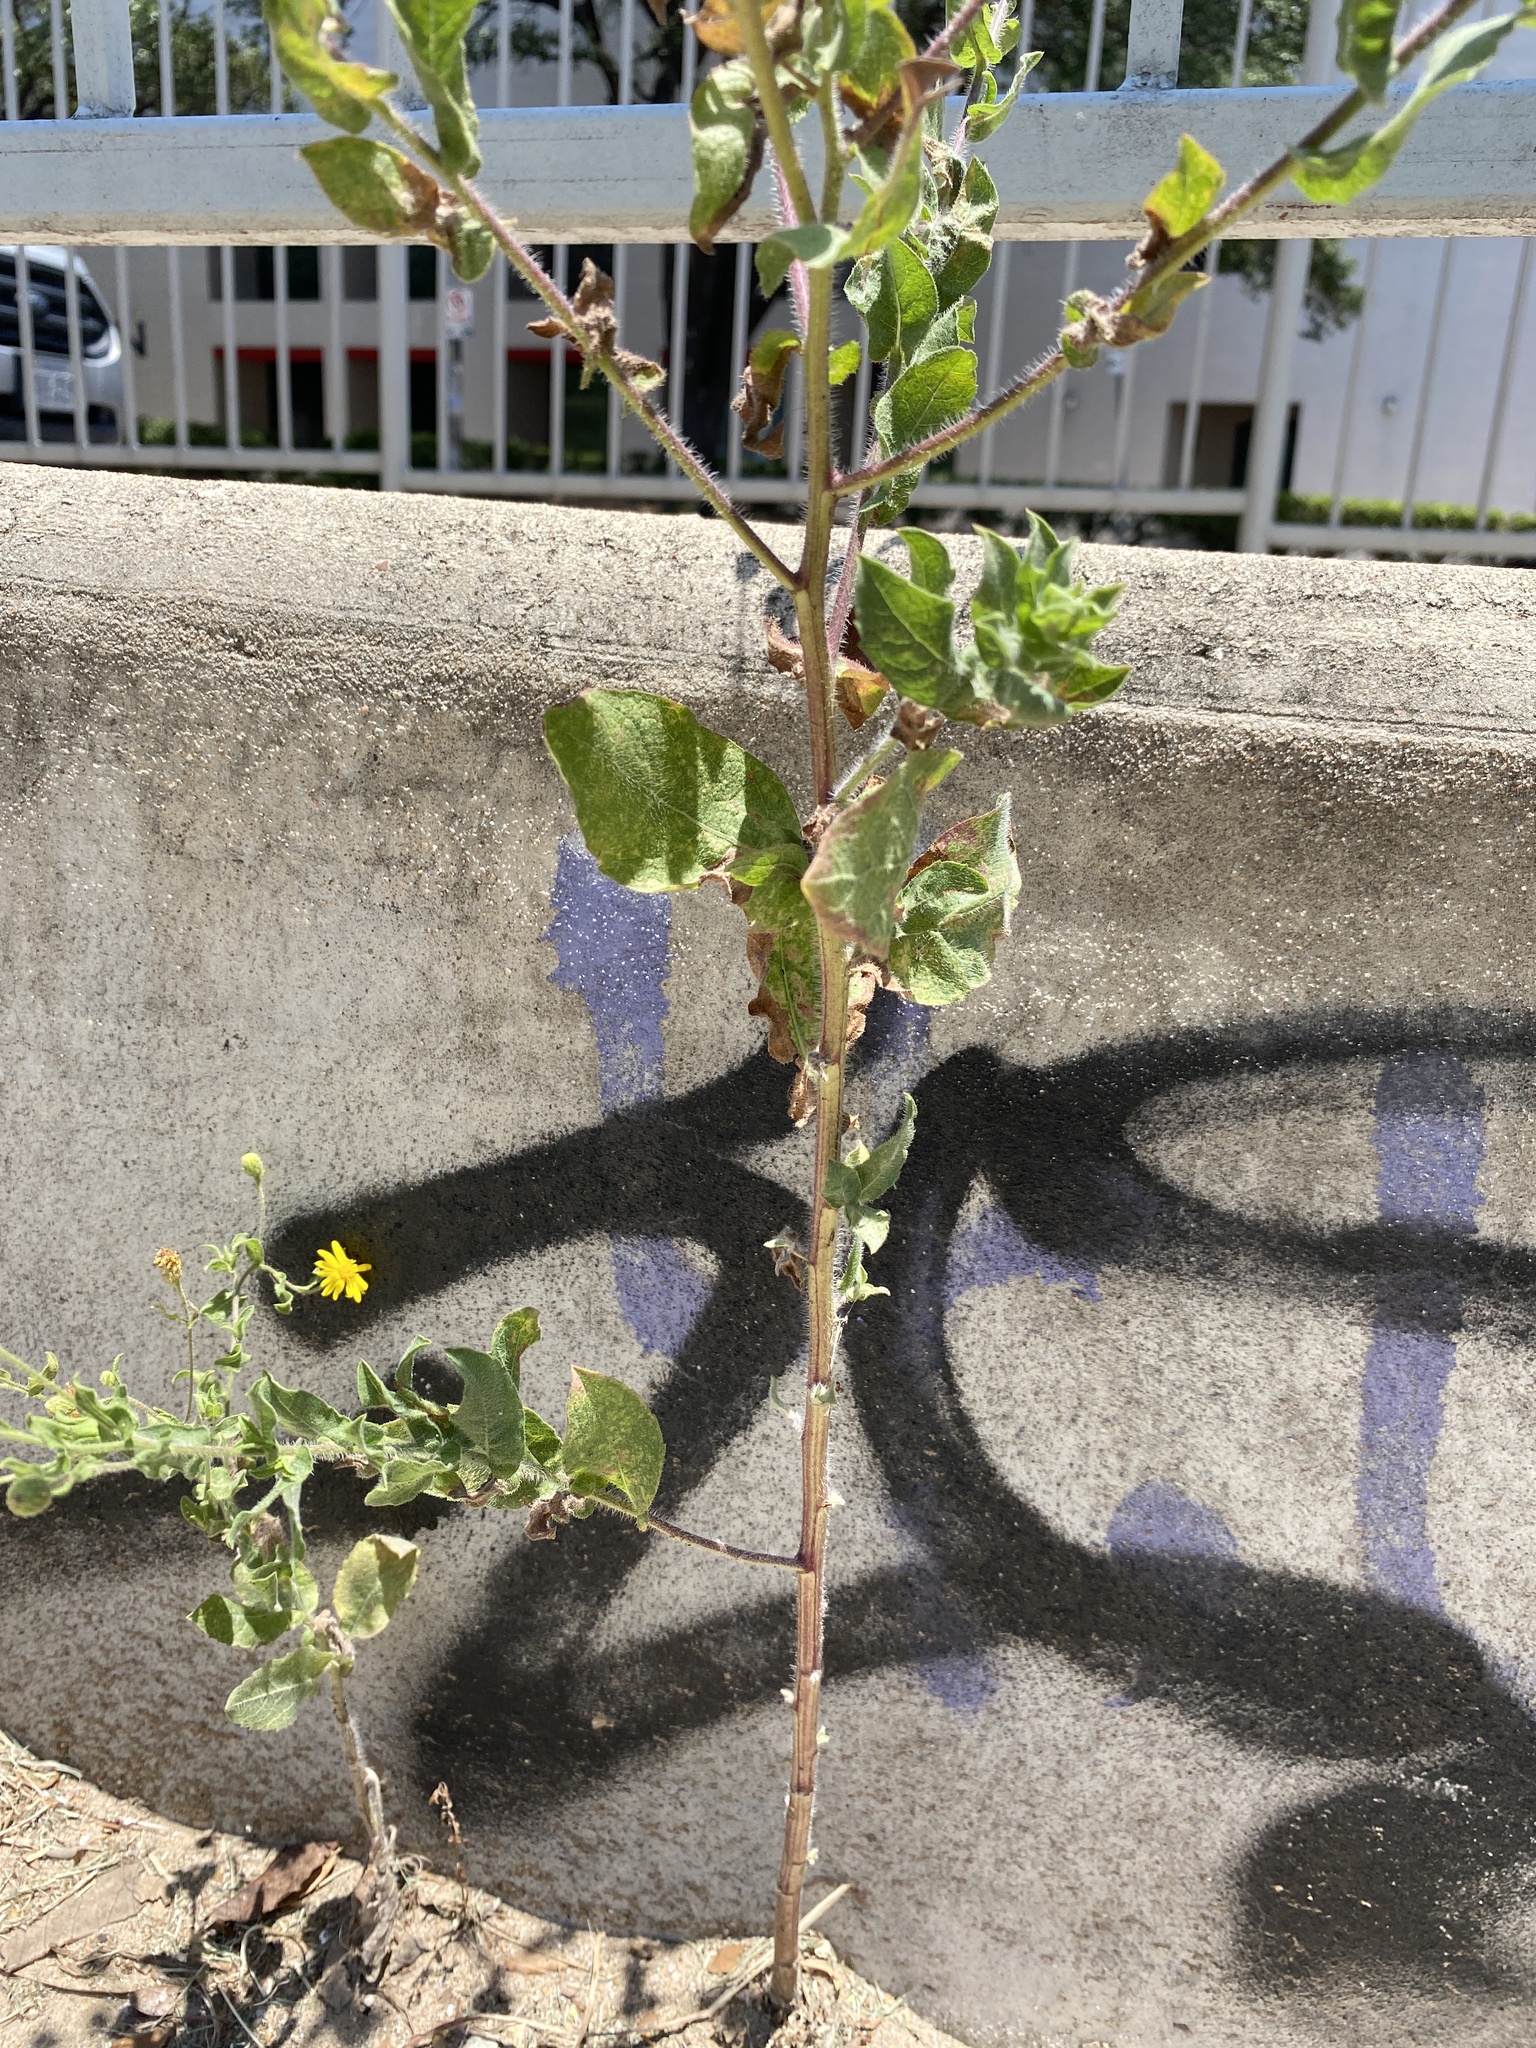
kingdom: Plantae
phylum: Tracheophyta
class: Magnoliopsida
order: Asterales
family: Asteraceae
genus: Heterotheca
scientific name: Heterotheca subaxillaris
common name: Camphorweed
